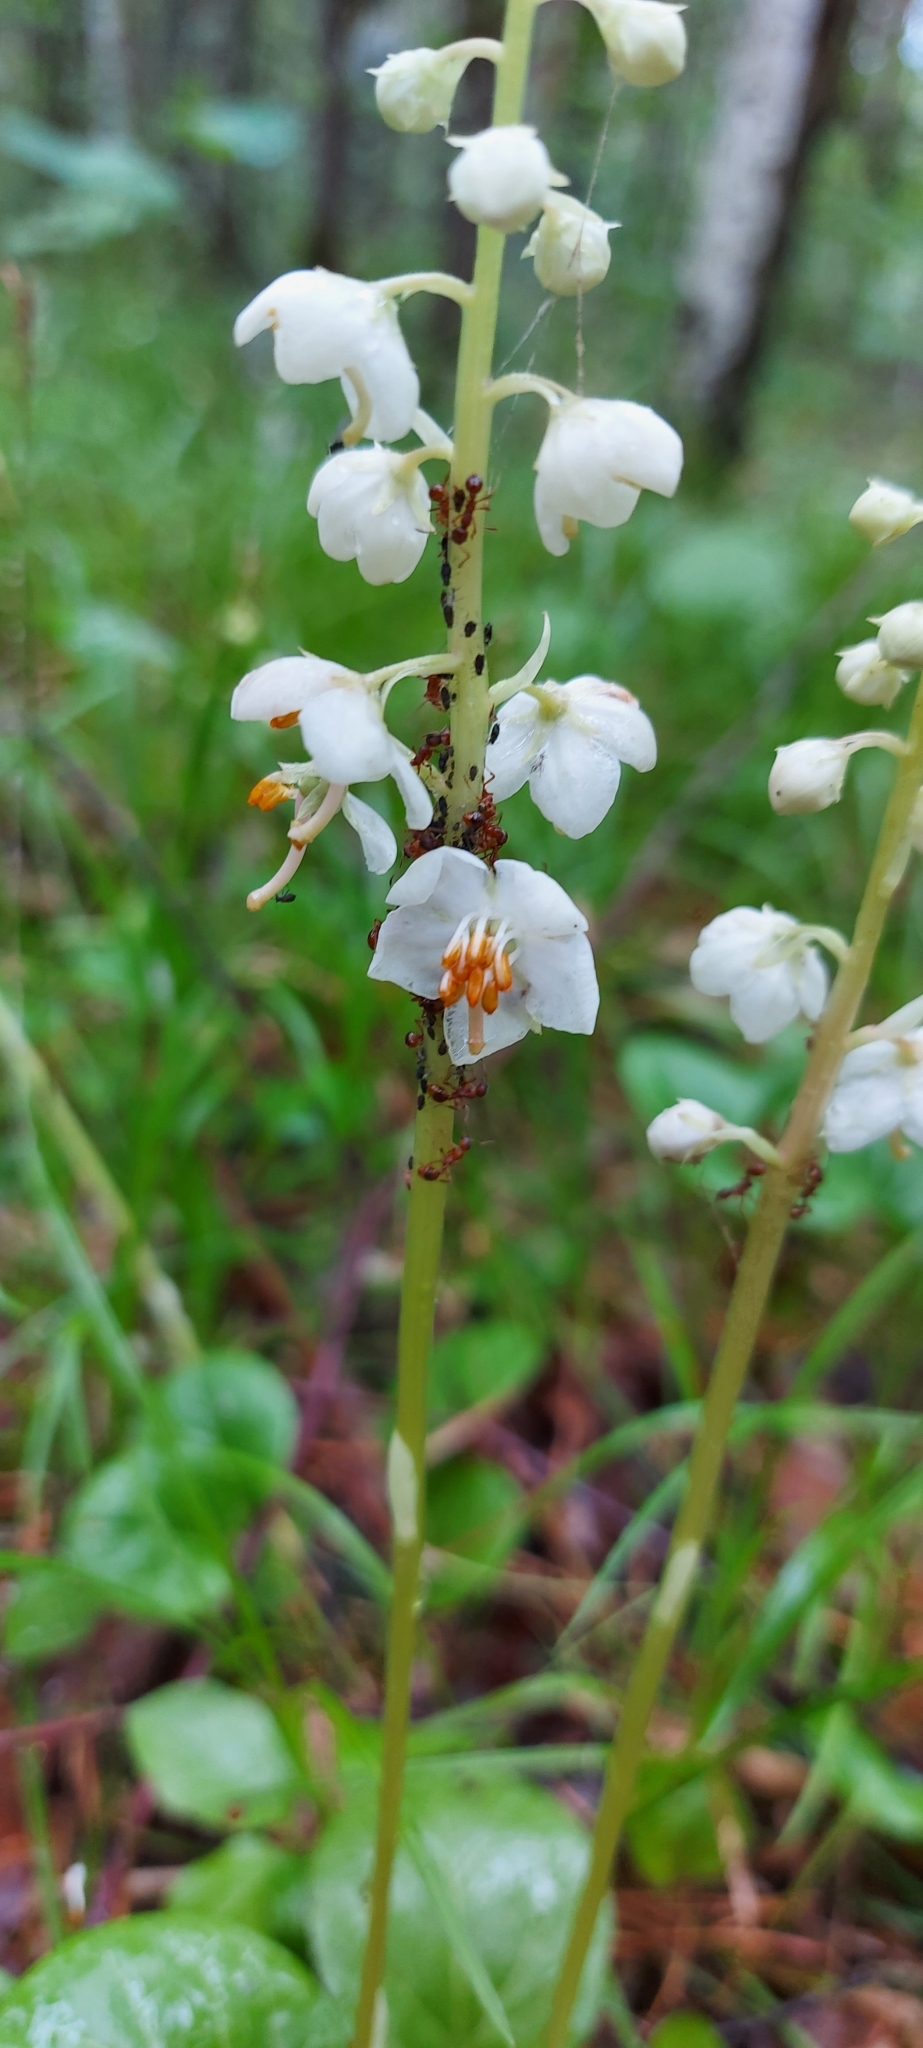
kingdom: Plantae
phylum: Tracheophyta
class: Magnoliopsida
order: Ericales
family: Ericaceae
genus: Pyrola
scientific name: Pyrola rotundifolia
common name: Round-leaved wintergreen
